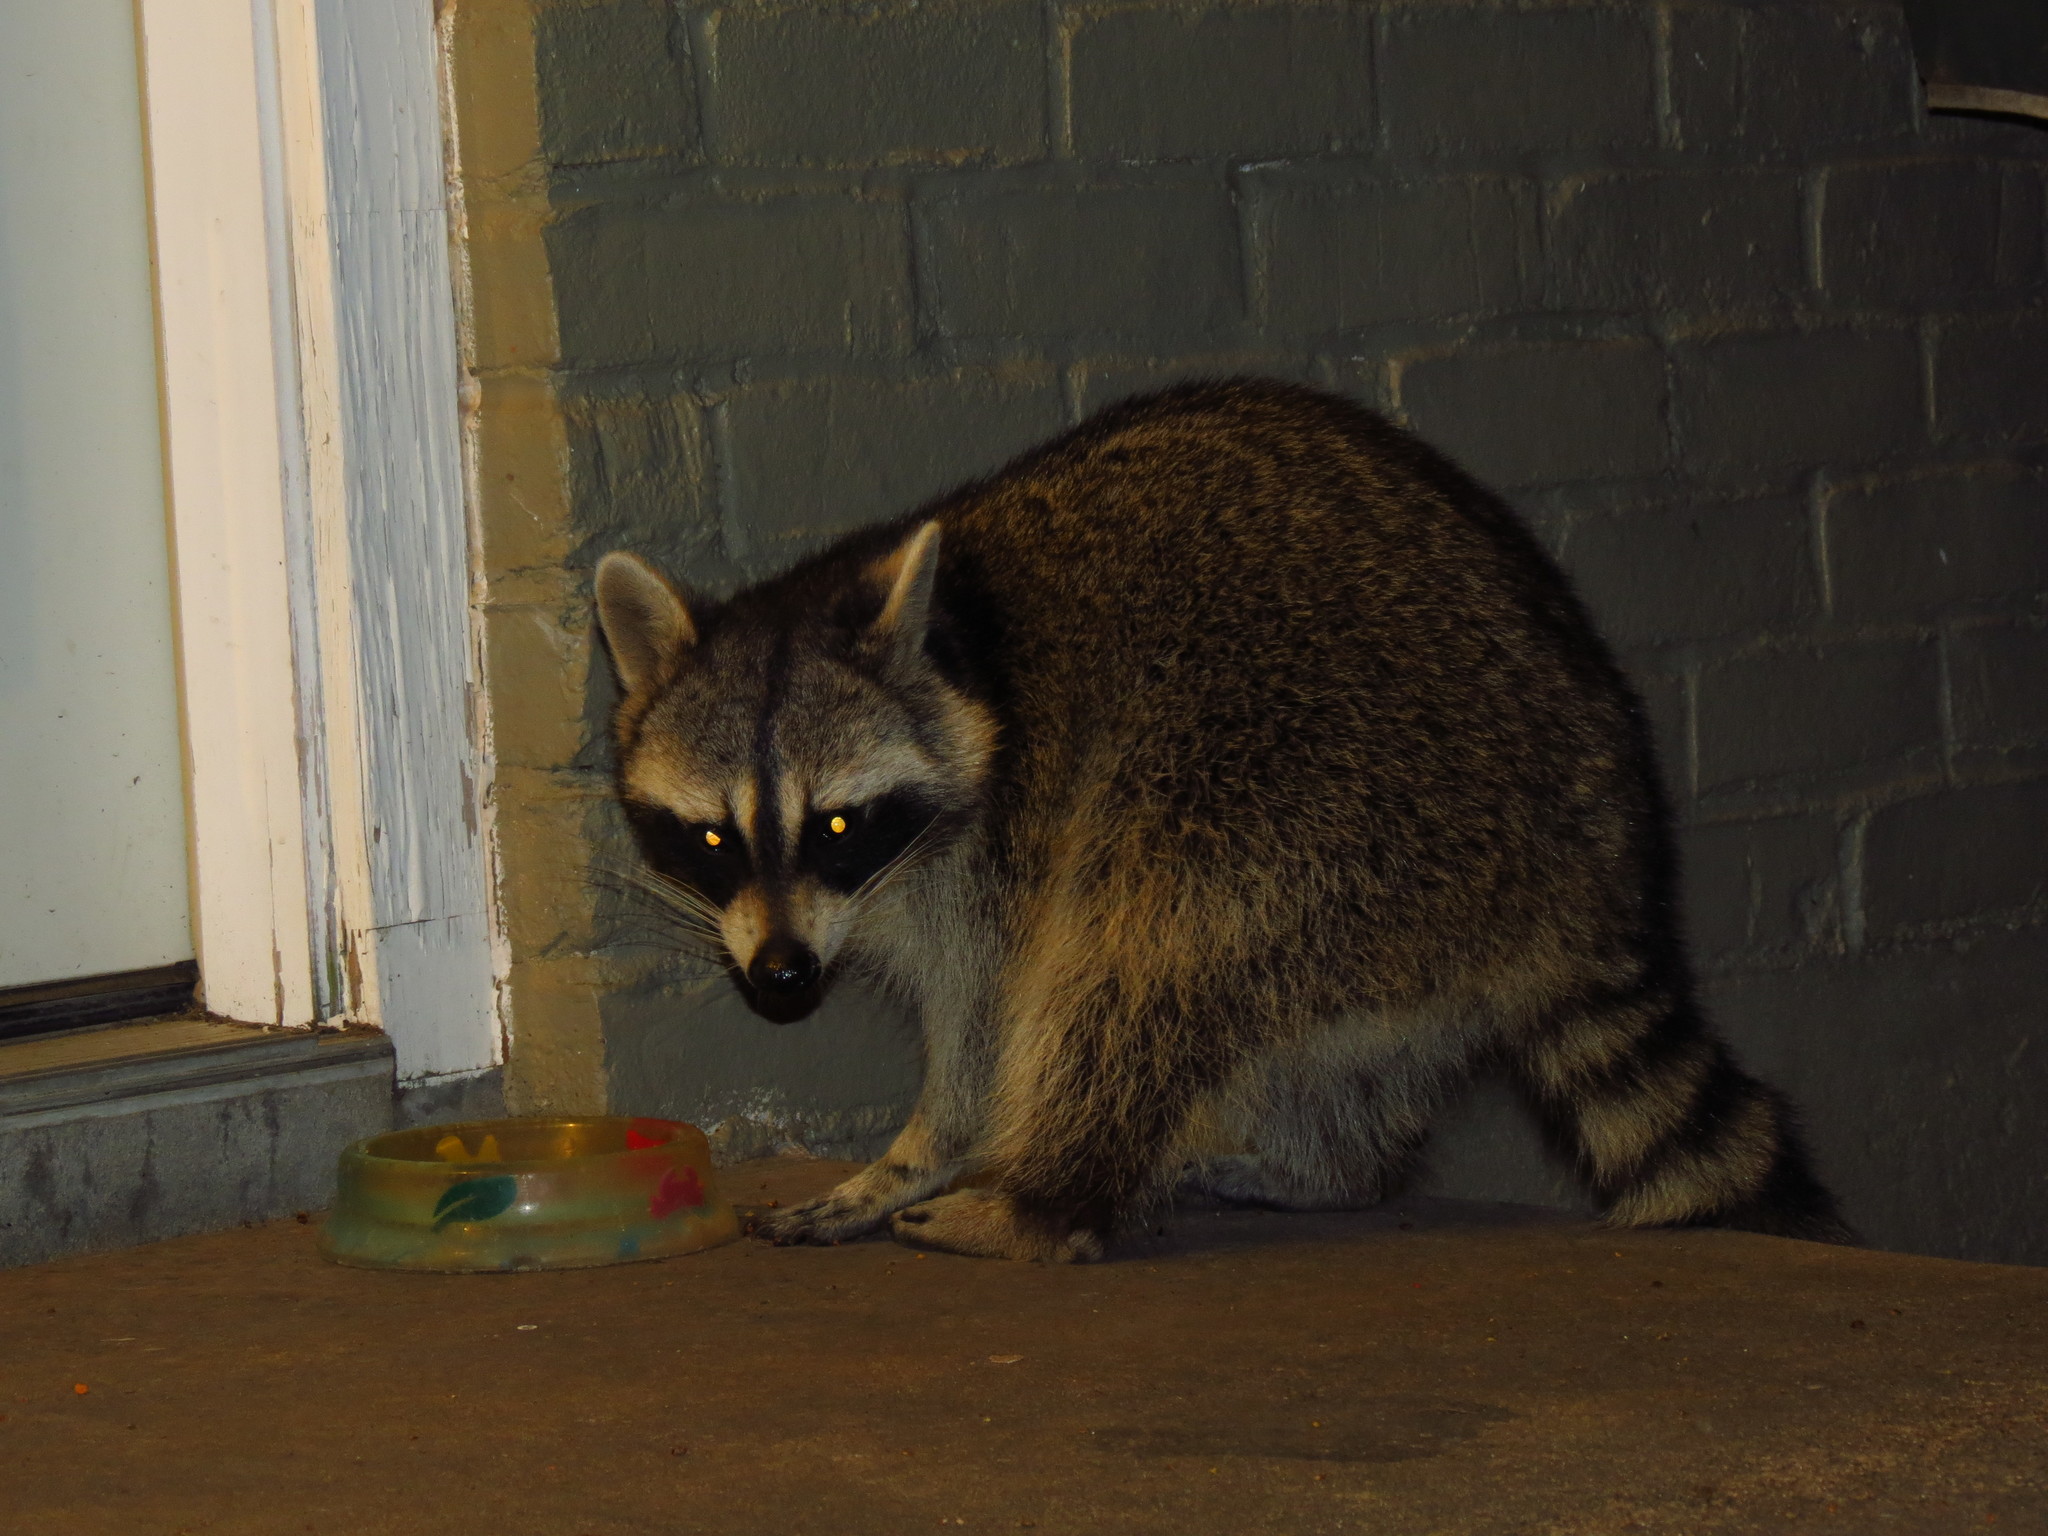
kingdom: Animalia
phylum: Chordata
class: Mammalia
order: Carnivora
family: Procyonidae
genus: Procyon
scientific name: Procyon lotor
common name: Raccoon
